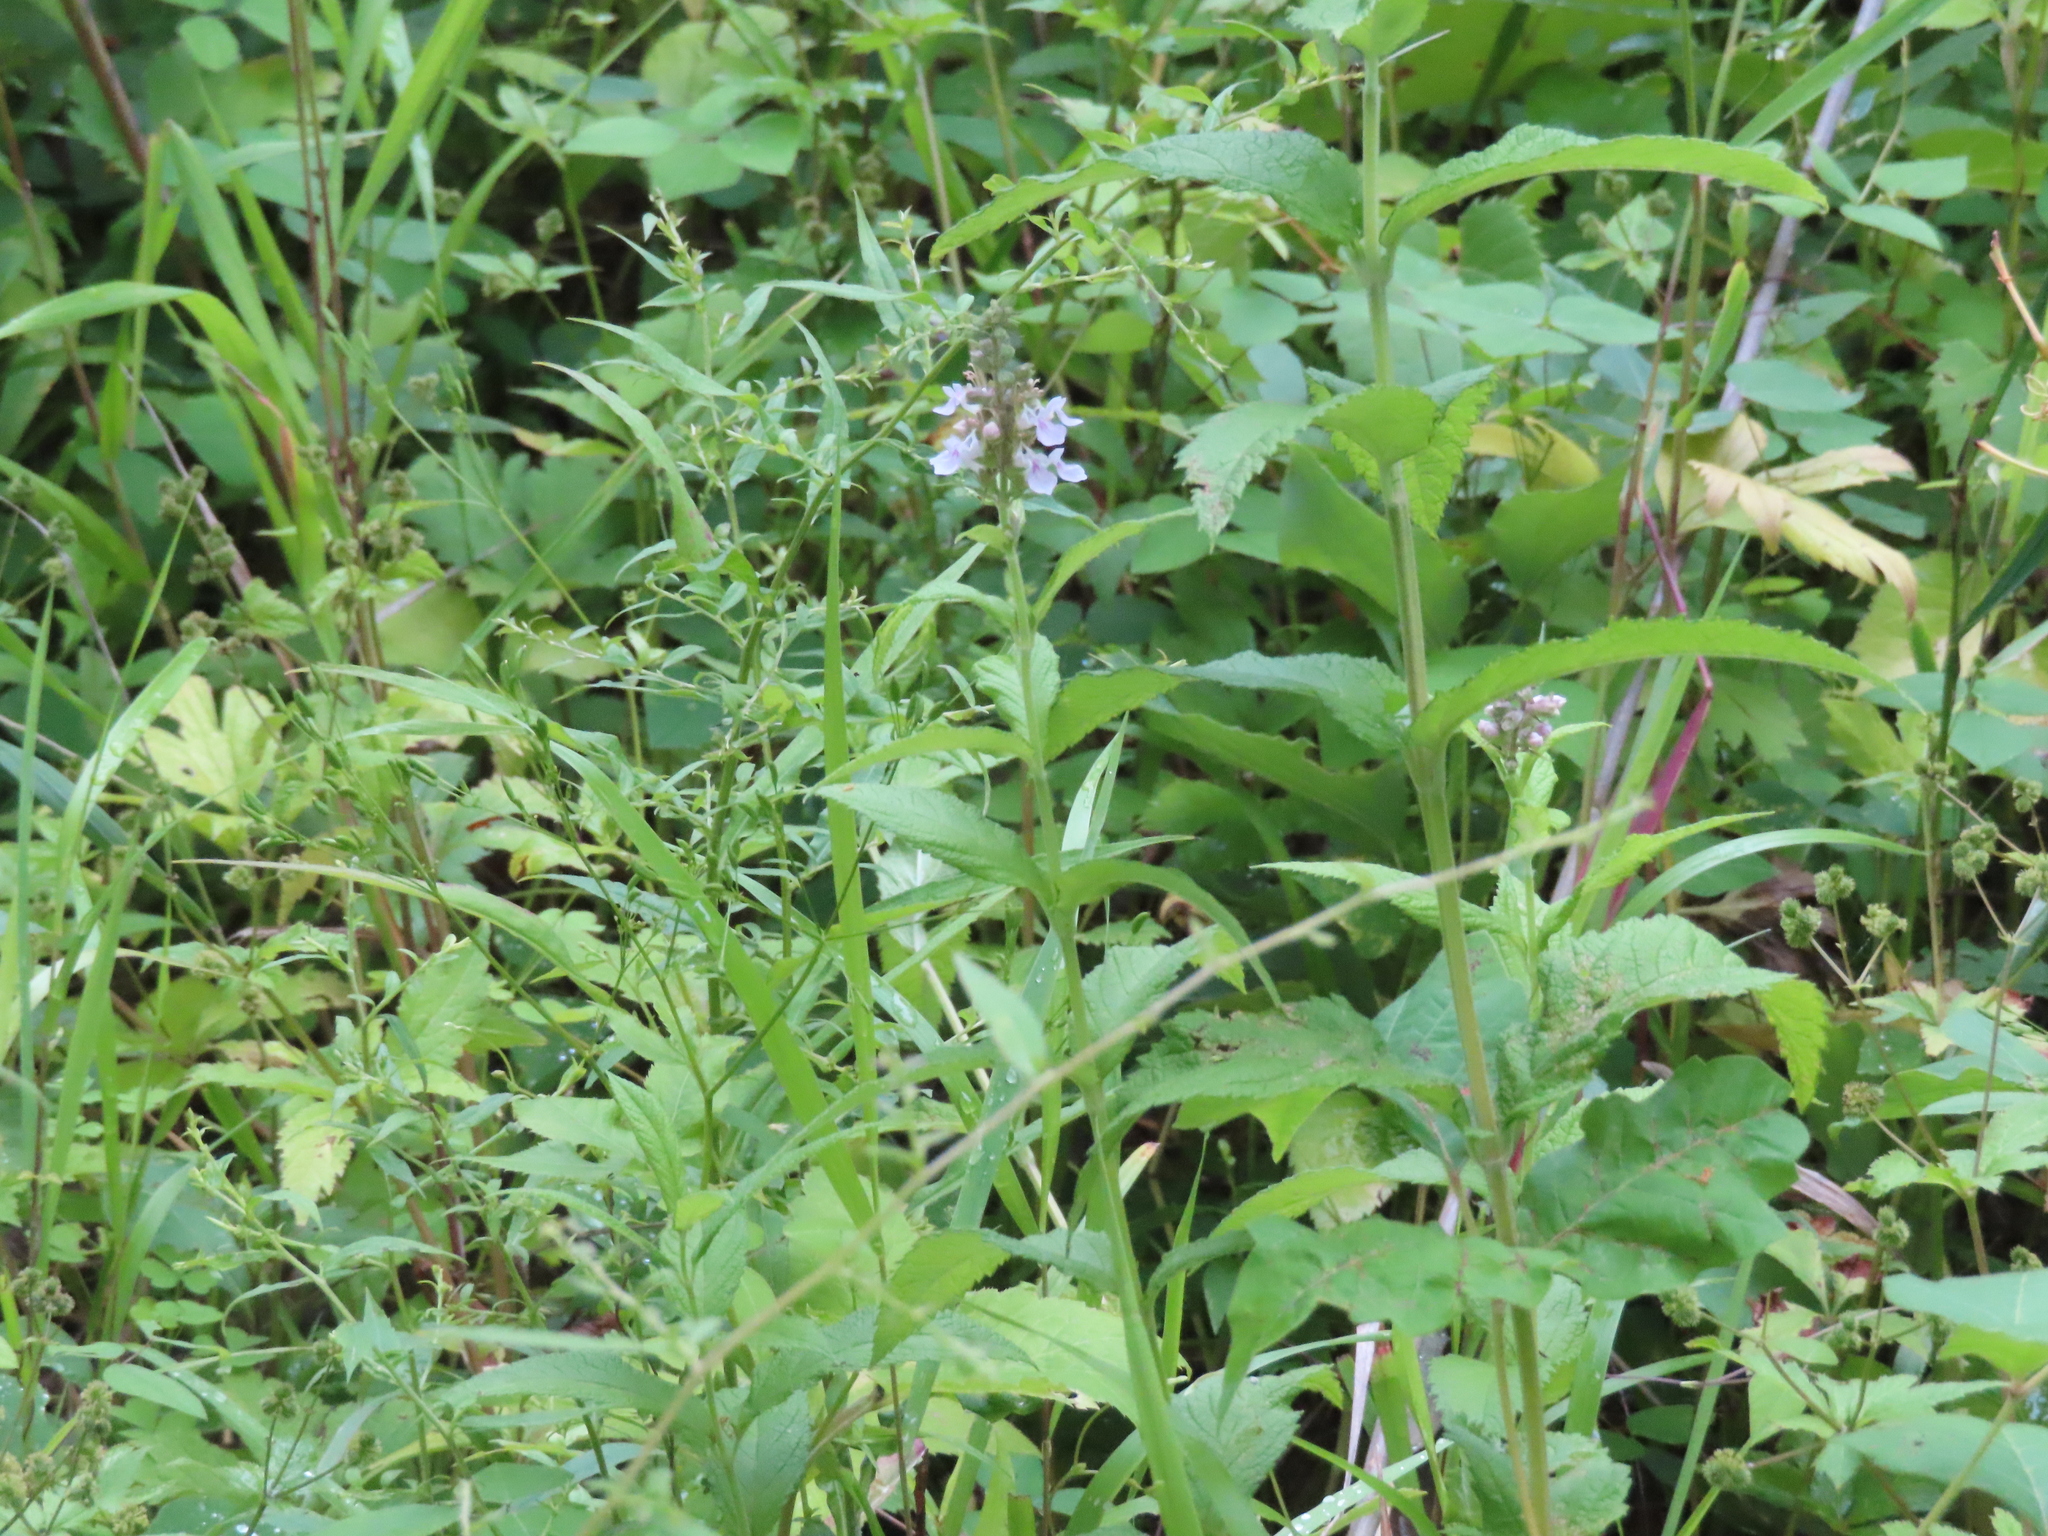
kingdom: Plantae
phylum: Tracheophyta
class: Magnoliopsida
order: Lamiales
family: Lamiaceae
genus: Teucrium
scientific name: Teucrium canadense
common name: American germander
